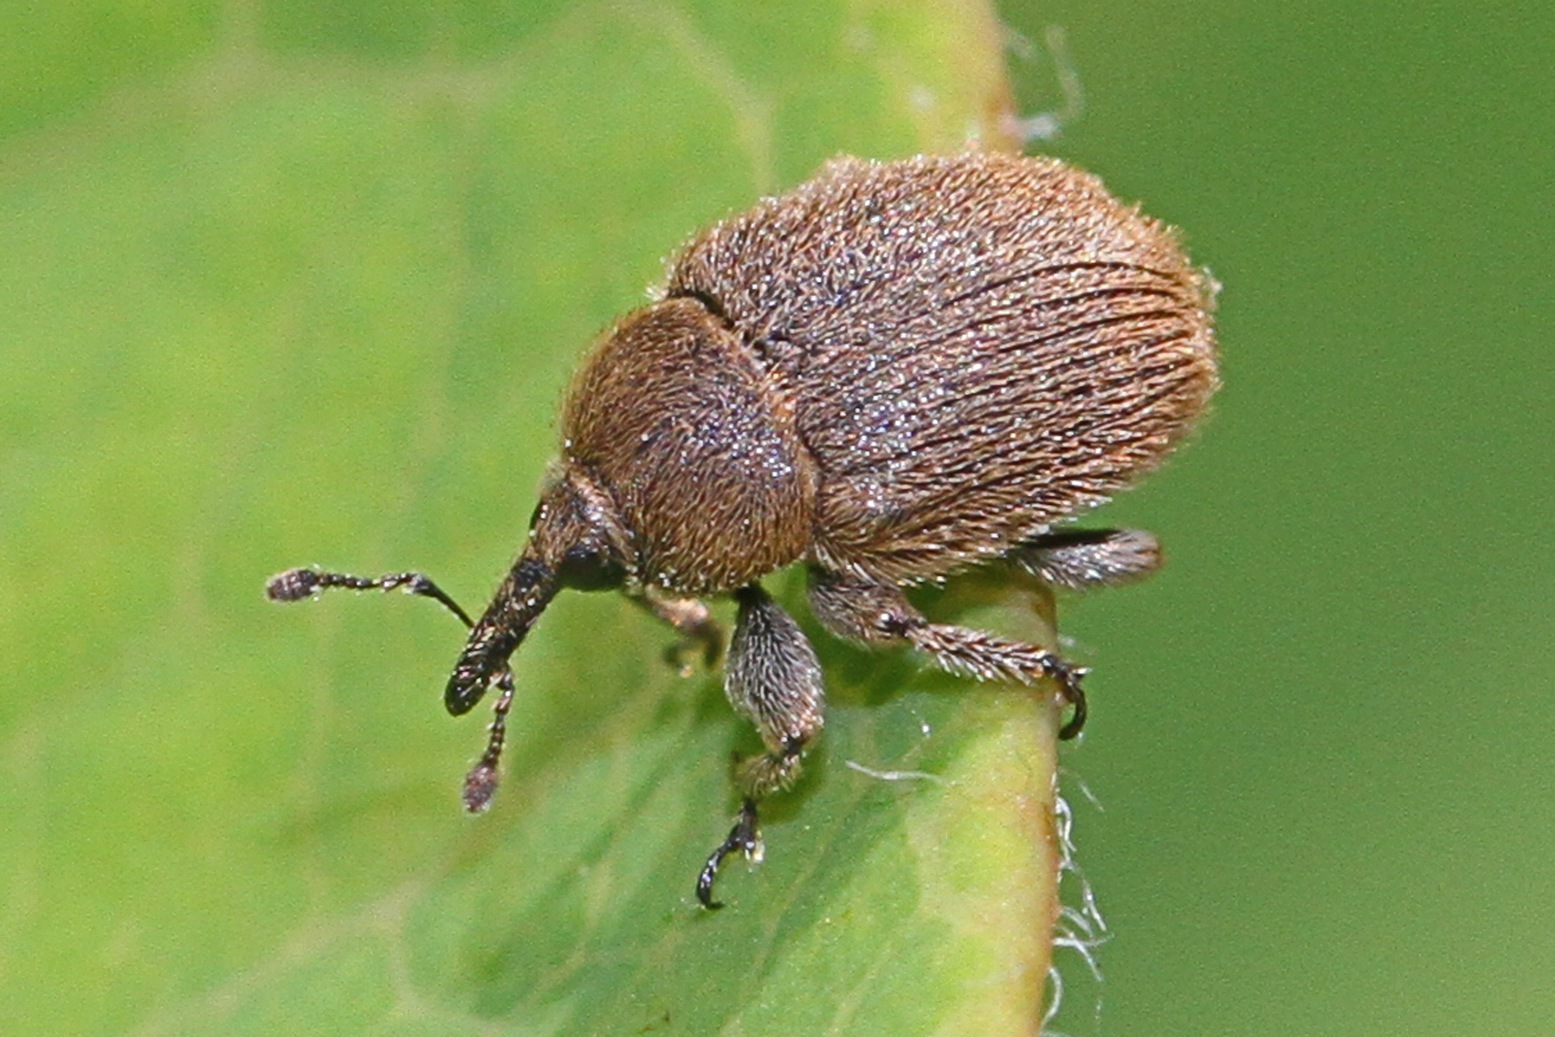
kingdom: Animalia
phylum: Arthropoda
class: Insecta
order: Coleoptera
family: Curculionidae
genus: Rhinusa
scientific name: Rhinusa tetra
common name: Weevil
